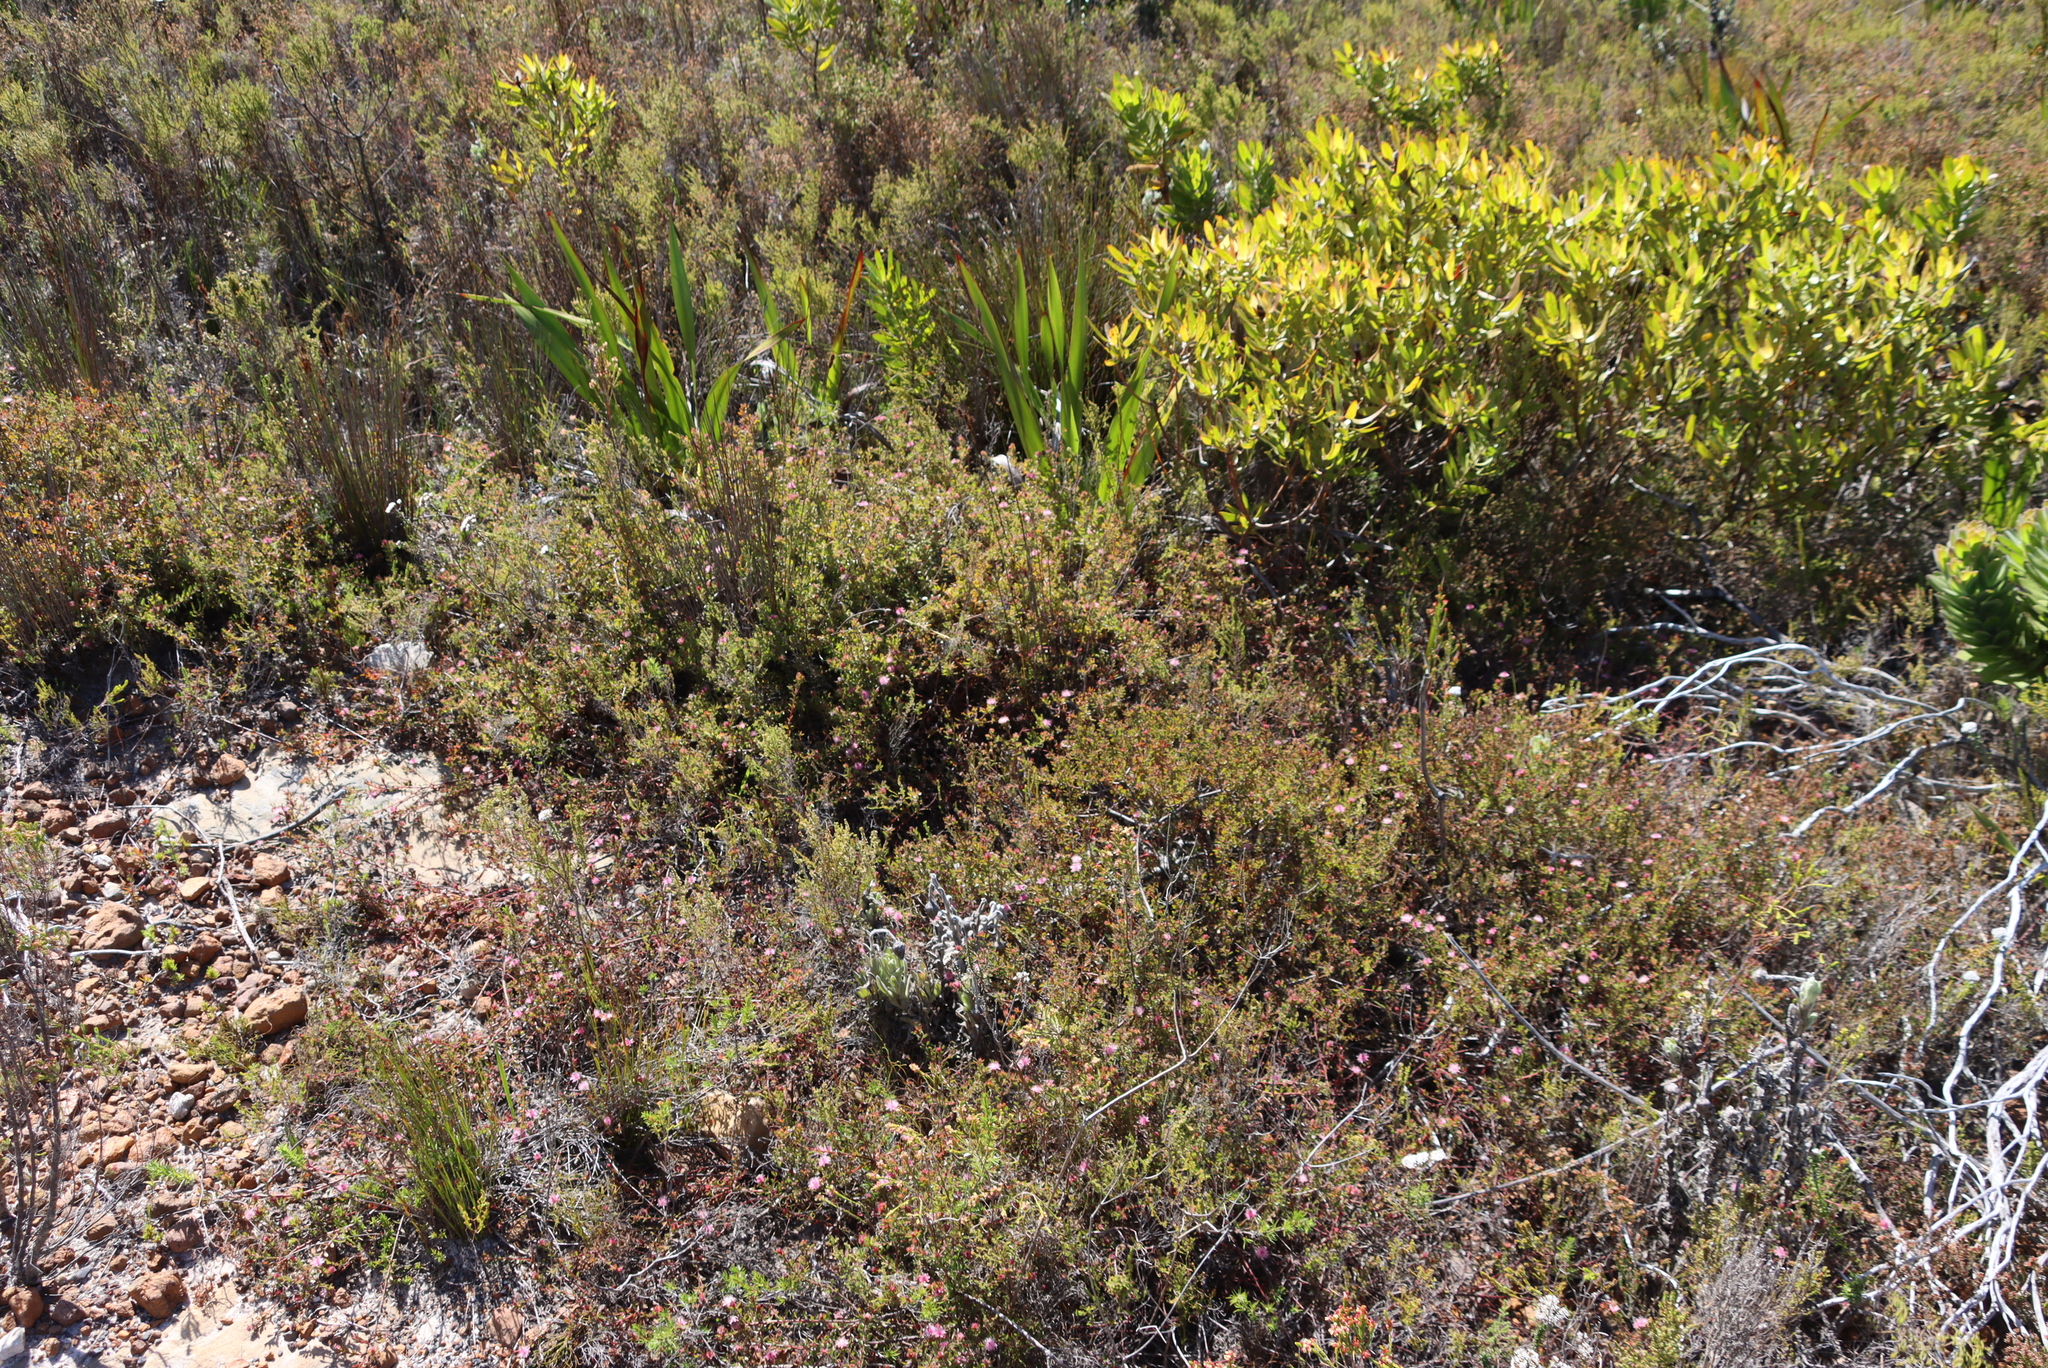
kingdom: Plantae
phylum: Tracheophyta
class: Magnoliopsida
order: Proteales
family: Proteaceae
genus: Diastella
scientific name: Diastella divaricata
